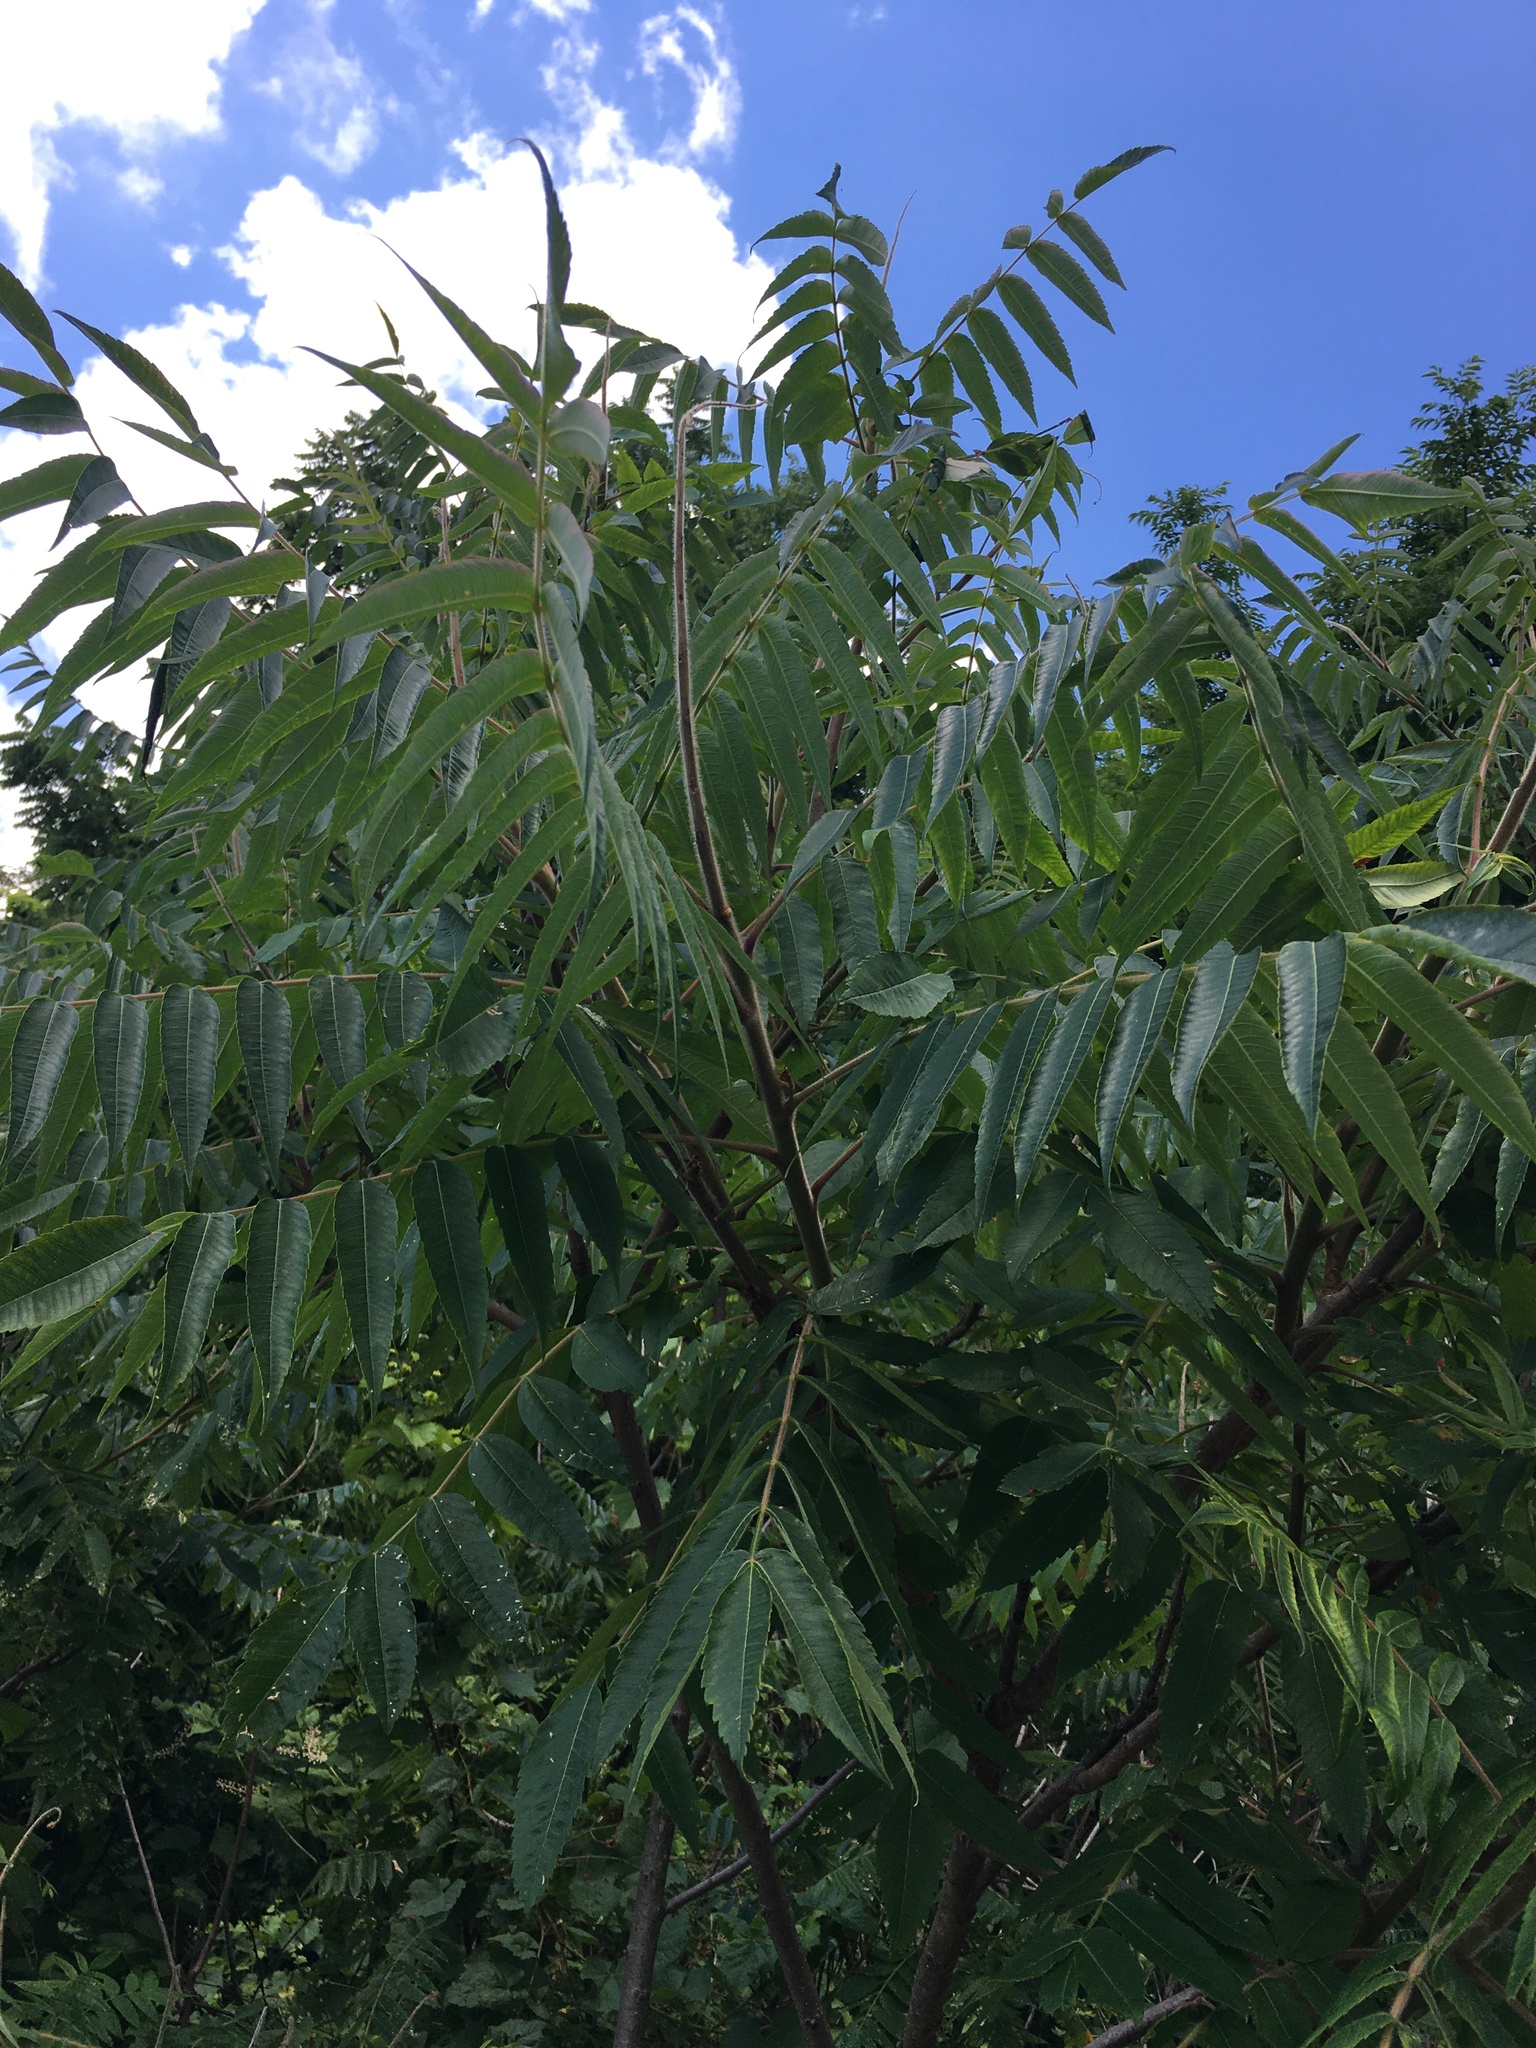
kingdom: Plantae
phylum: Tracheophyta
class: Magnoliopsida
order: Sapindales
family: Anacardiaceae
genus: Rhus
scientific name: Rhus typhina
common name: Staghorn sumac
